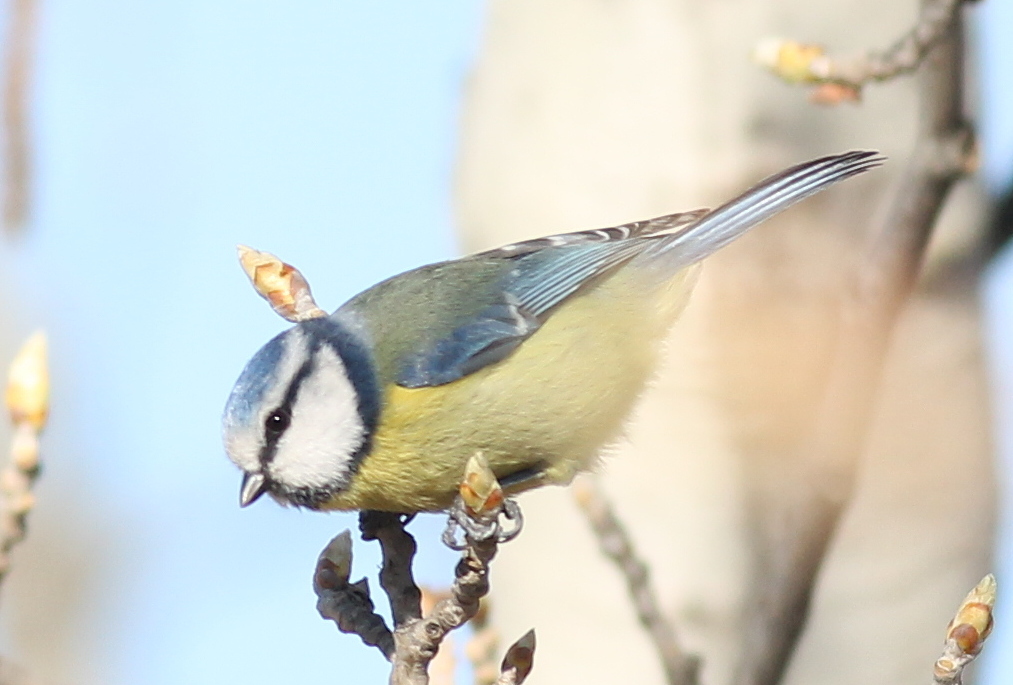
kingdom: Animalia
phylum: Chordata
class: Aves
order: Passeriformes
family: Paridae
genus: Cyanistes
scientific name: Cyanistes caeruleus
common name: Eurasian blue tit
